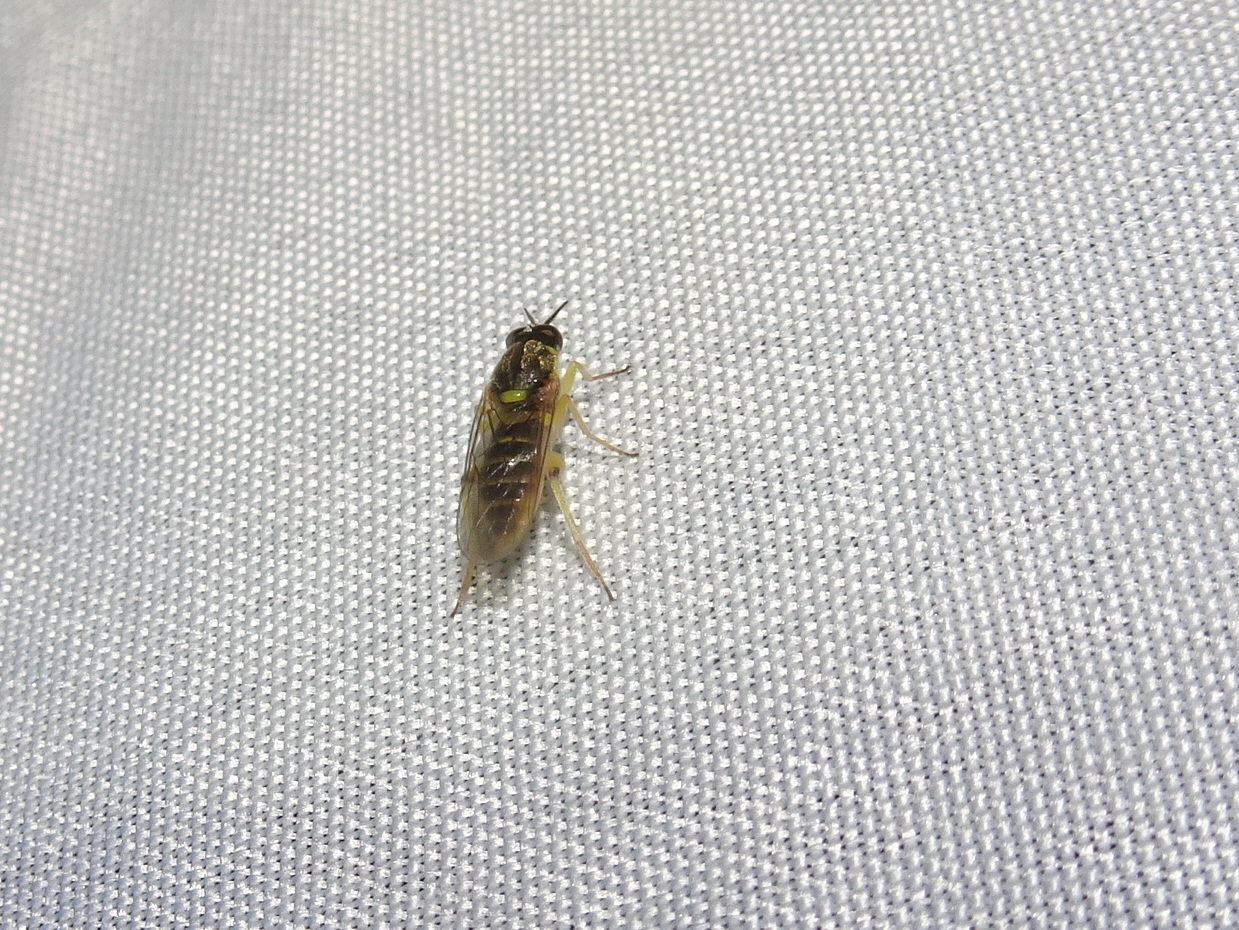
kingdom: Animalia
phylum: Arthropoda
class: Insecta
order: Diptera
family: Xylomyidae
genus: Solva
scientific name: Solva pallipes
